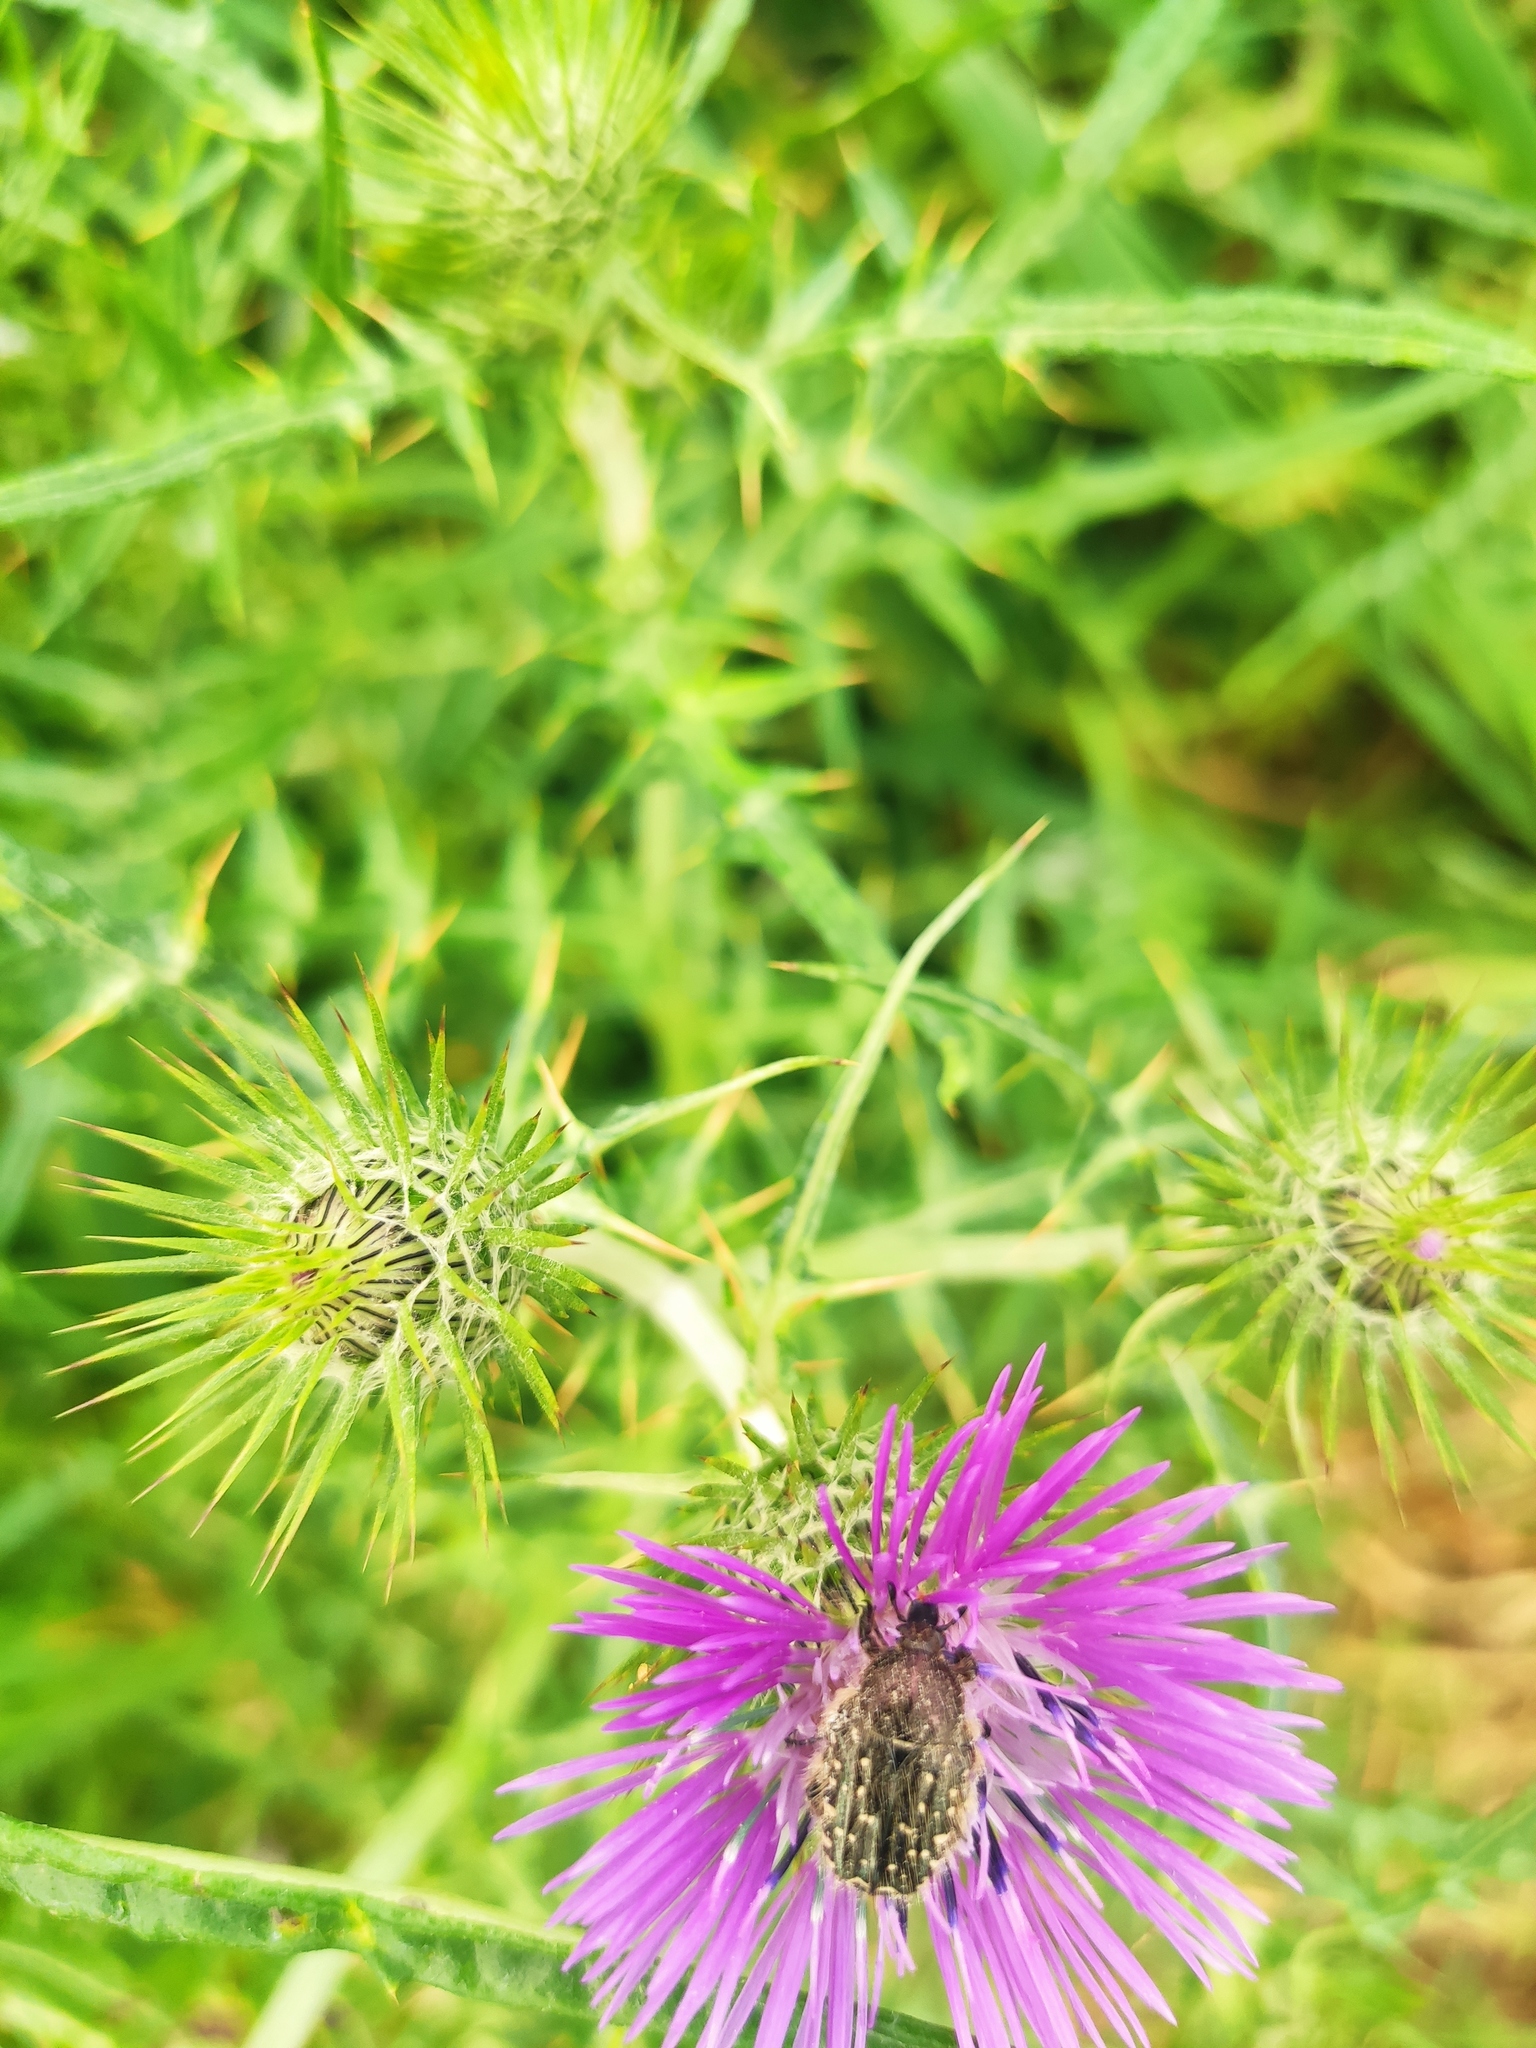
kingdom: Animalia
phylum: Arthropoda
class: Insecta
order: Coleoptera
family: Scarabaeidae
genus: Oxythyrea
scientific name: Oxythyrea funesta
